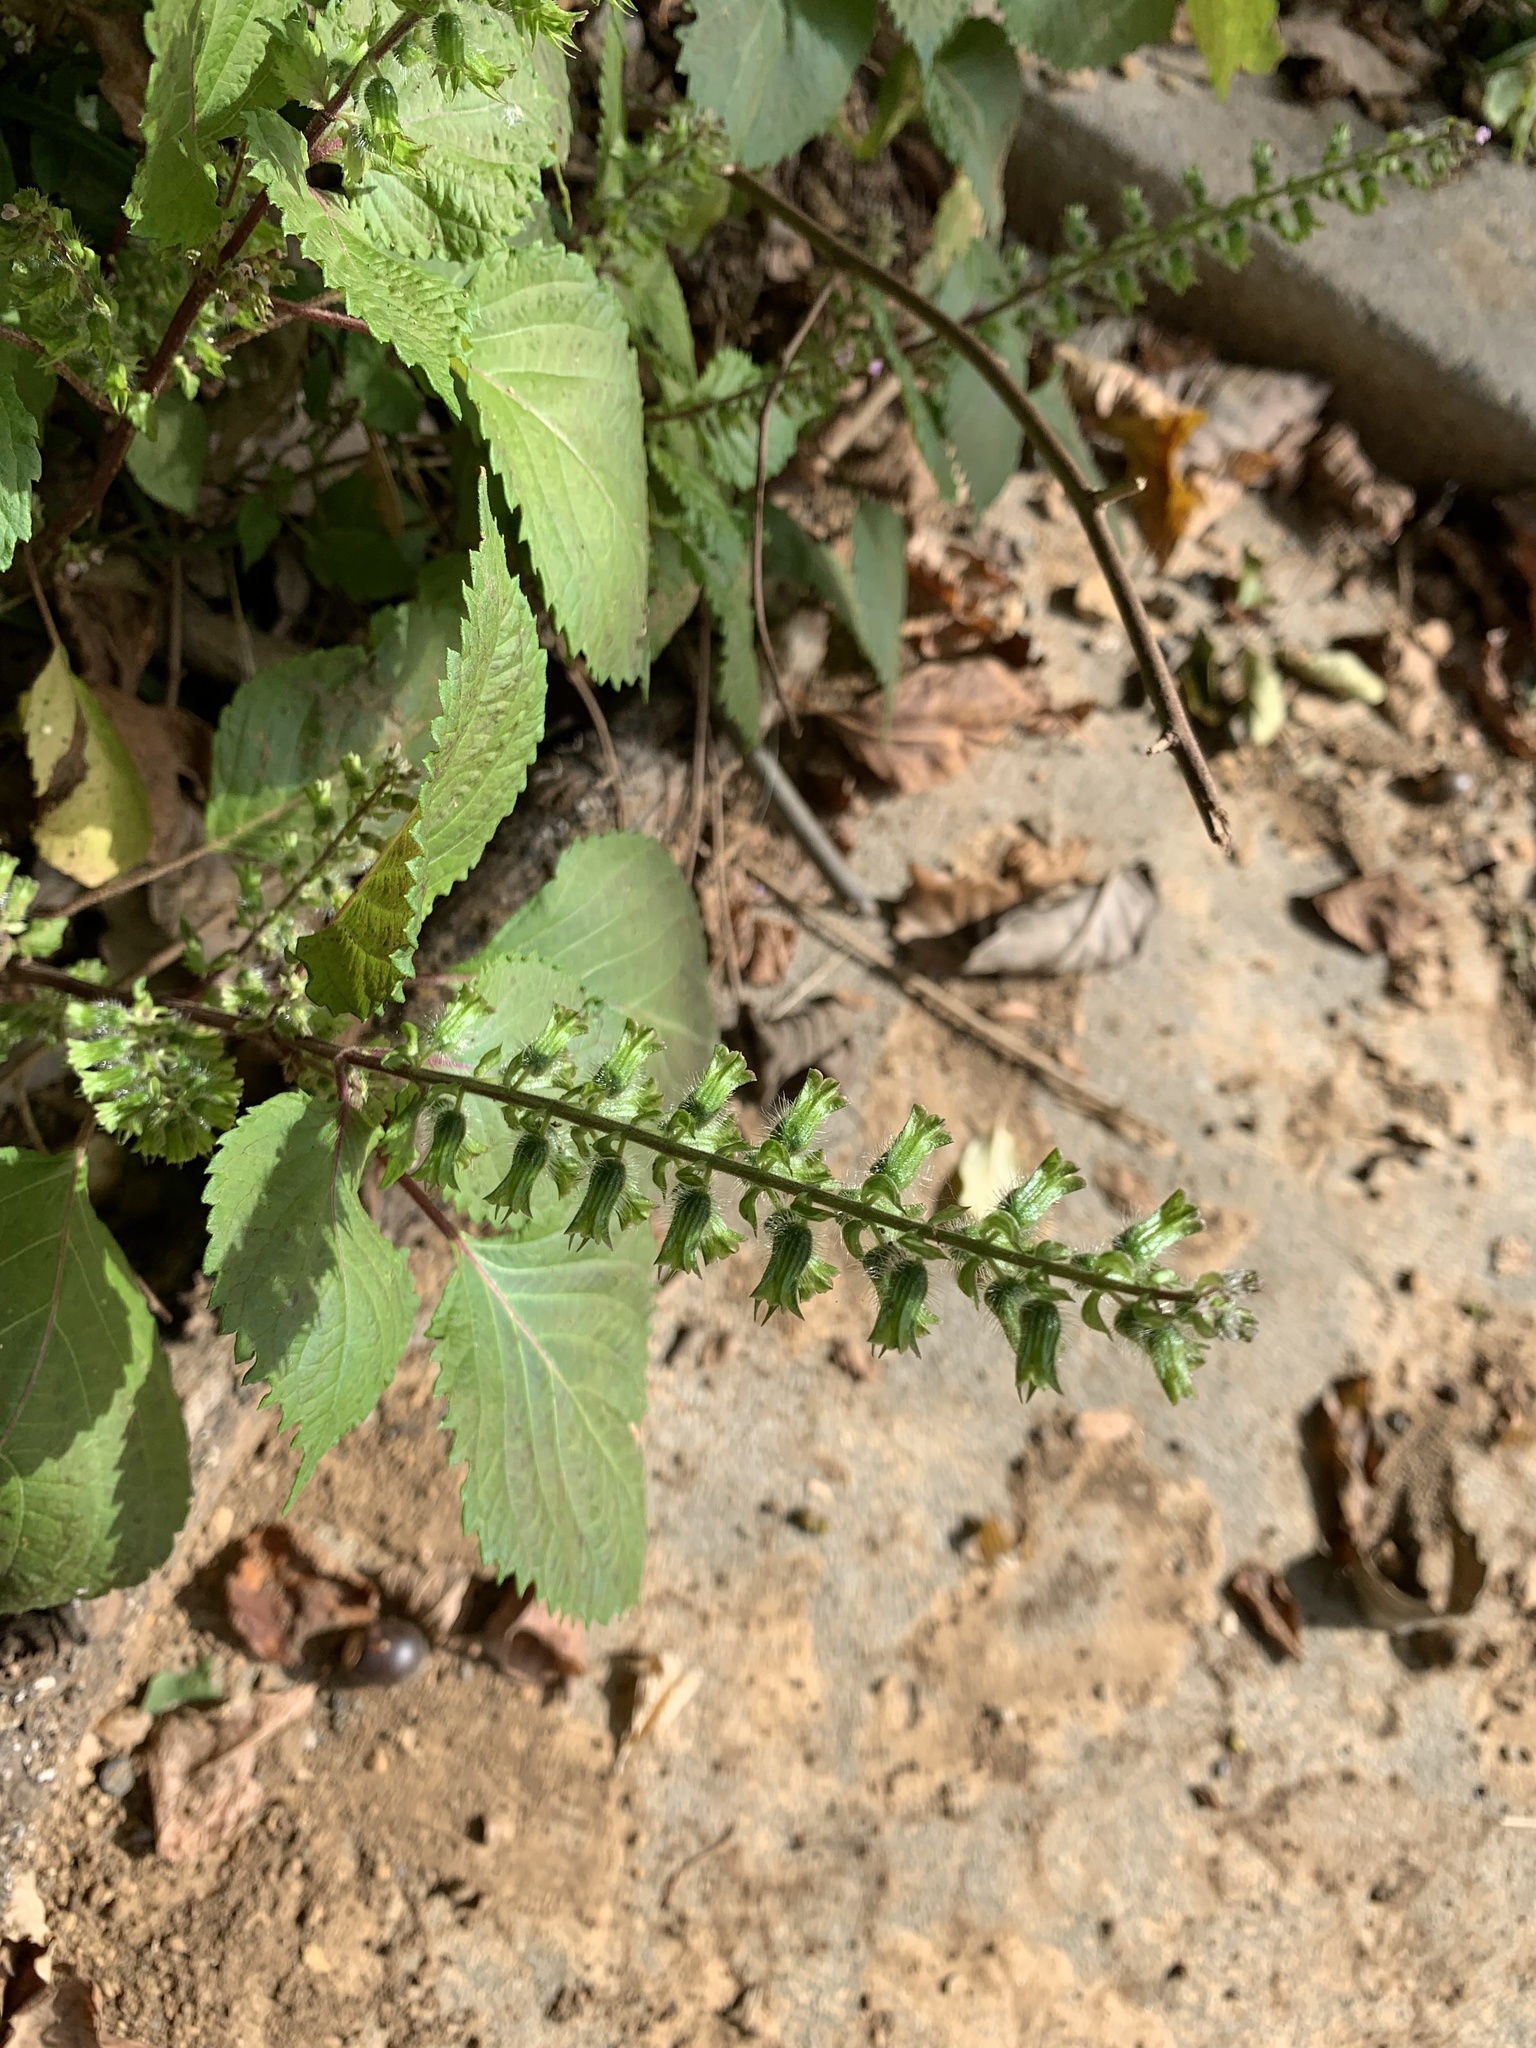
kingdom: Plantae
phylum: Tracheophyta
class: Magnoliopsida
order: Lamiales
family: Lamiaceae
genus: Perilla
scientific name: Perilla frutescens
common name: Perilla
